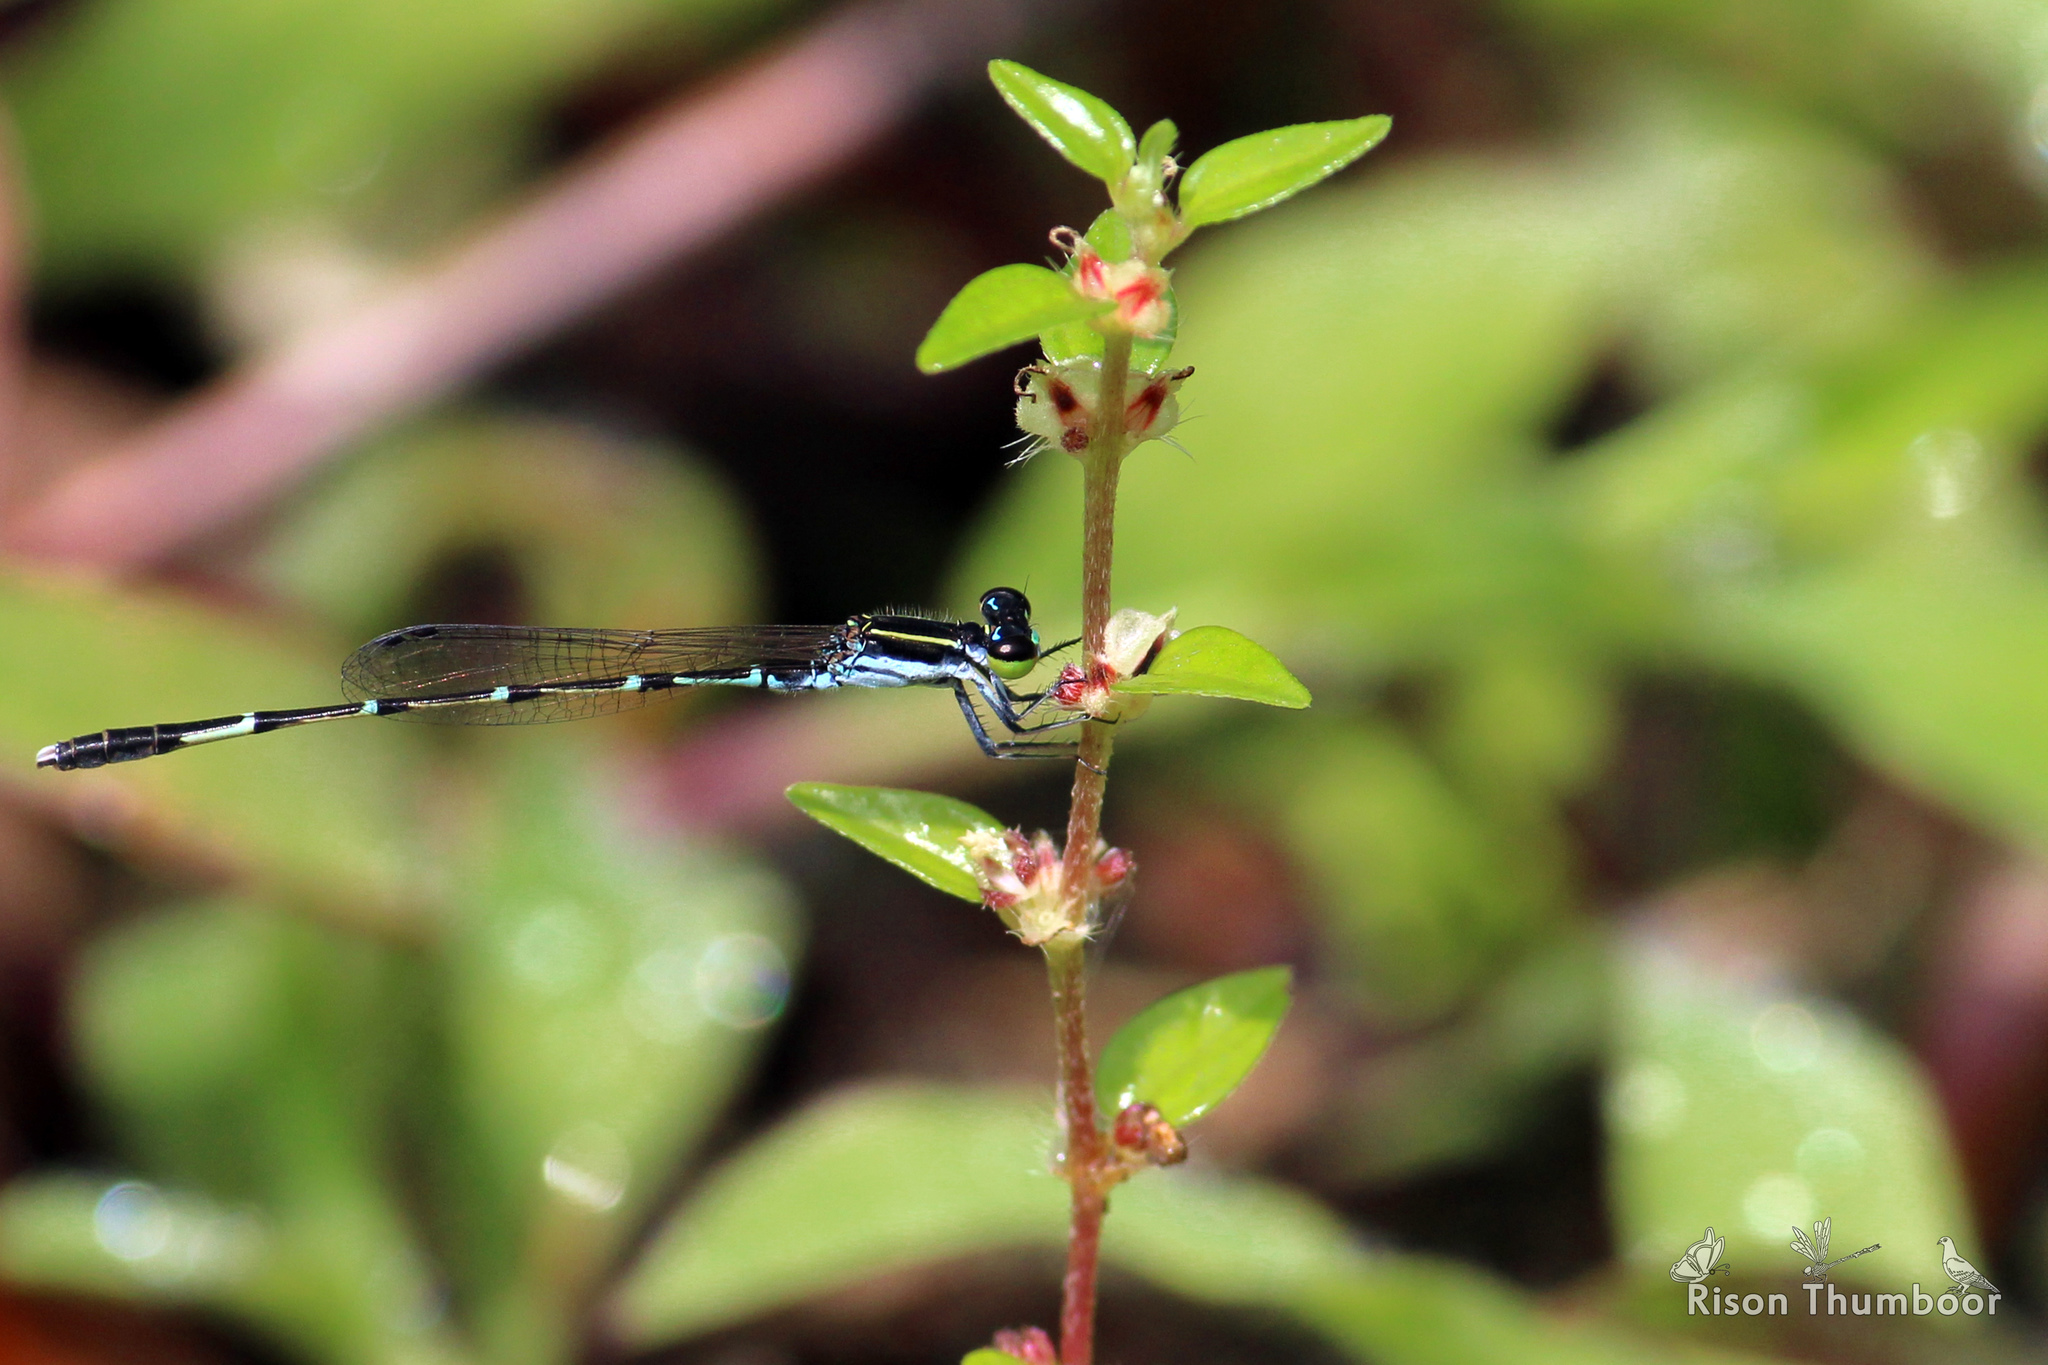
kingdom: Animalia
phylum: Arthropoda
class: Insecta
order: Odonata
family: Coenagrionidae
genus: Agriocnemis
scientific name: Agriocnemis splendidissima
